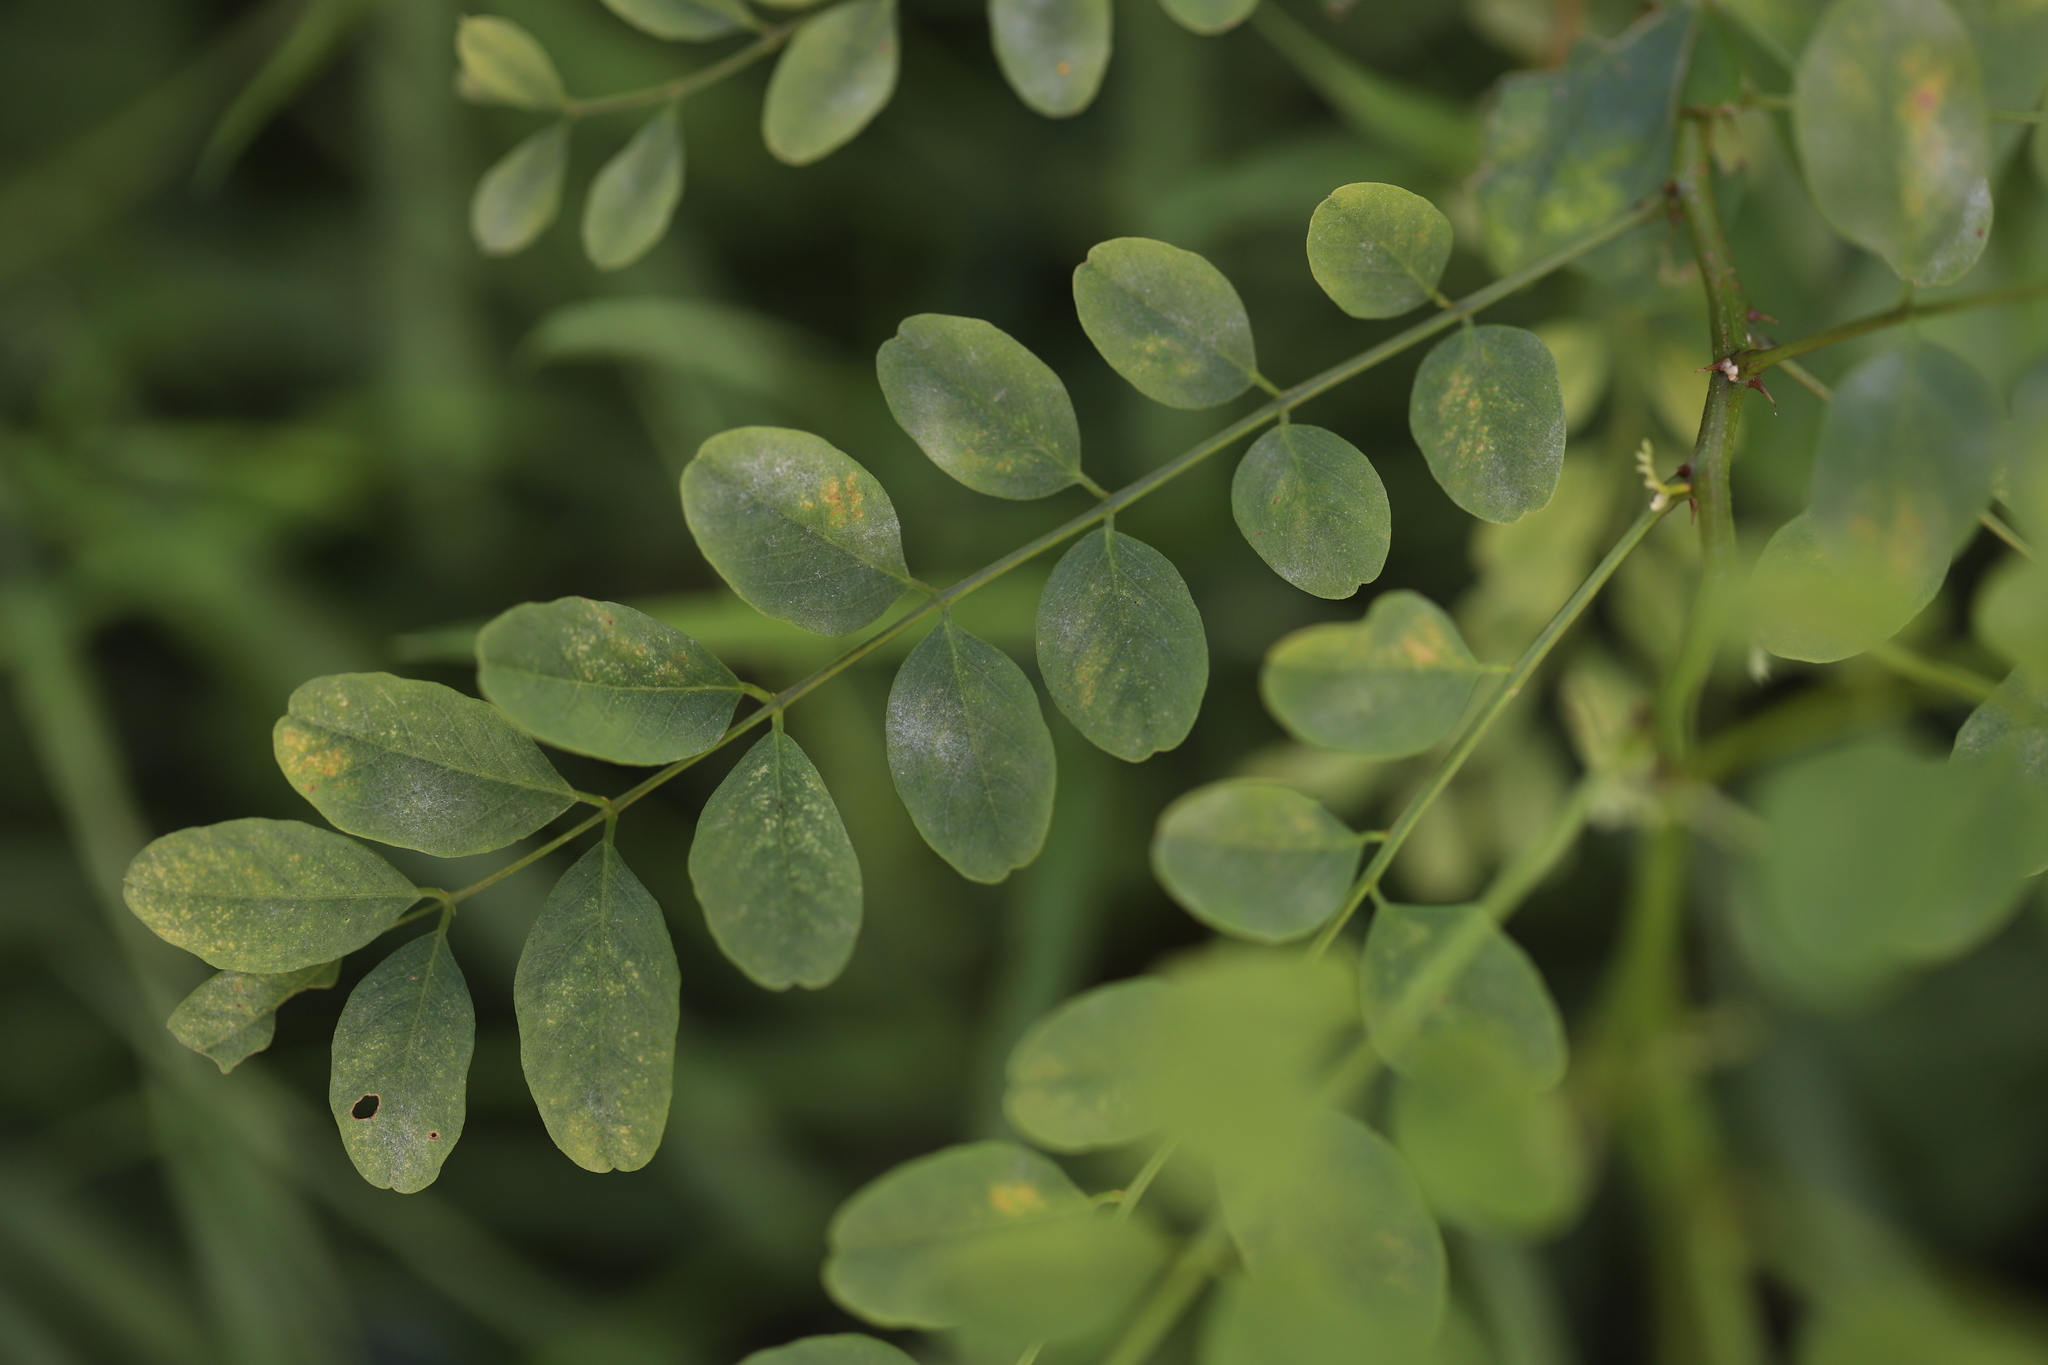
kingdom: Plantae
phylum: Tracheophyta
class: Magnoliopsida
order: Fabales
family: Fabaceae
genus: Robinia
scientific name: Robinia pseudoacacia
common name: Black locust
